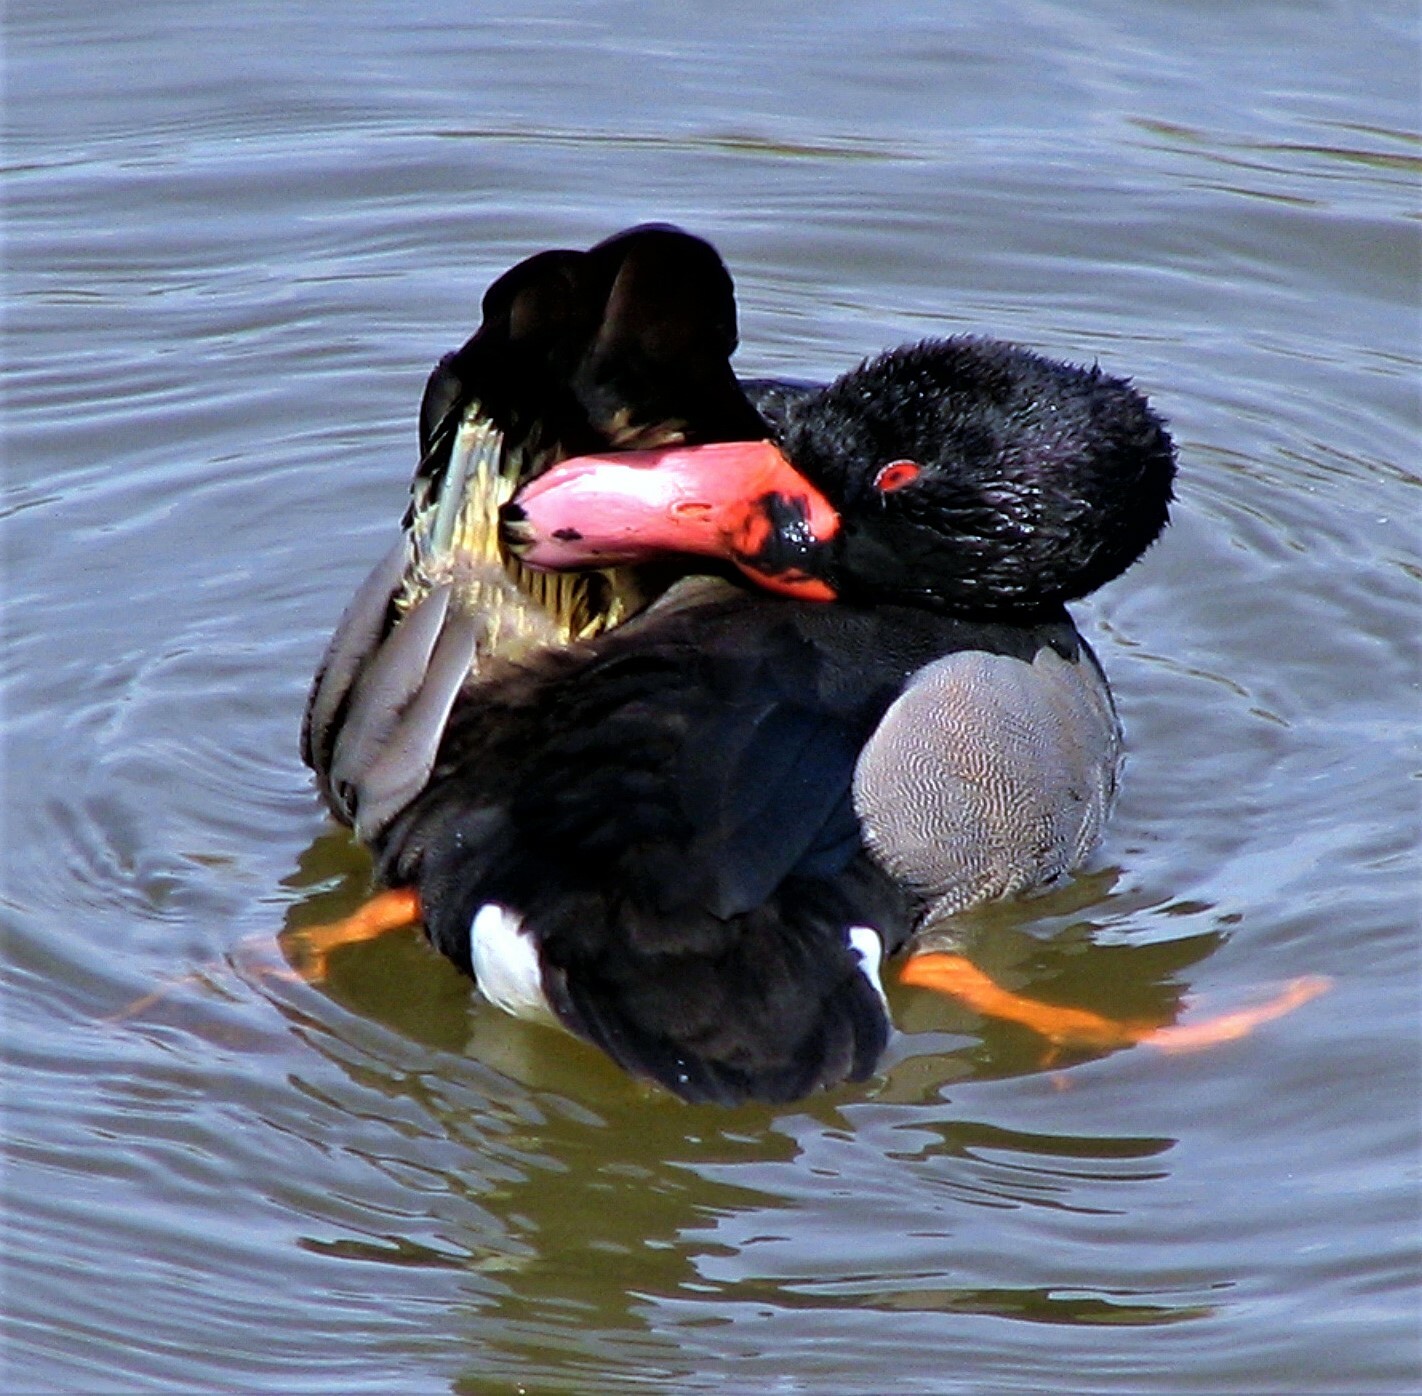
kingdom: Animalia
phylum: Chordata
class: Aves
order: Anseriformes
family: Anatidae
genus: Netta
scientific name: Netta peposaca
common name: Rosy-billed pochard
